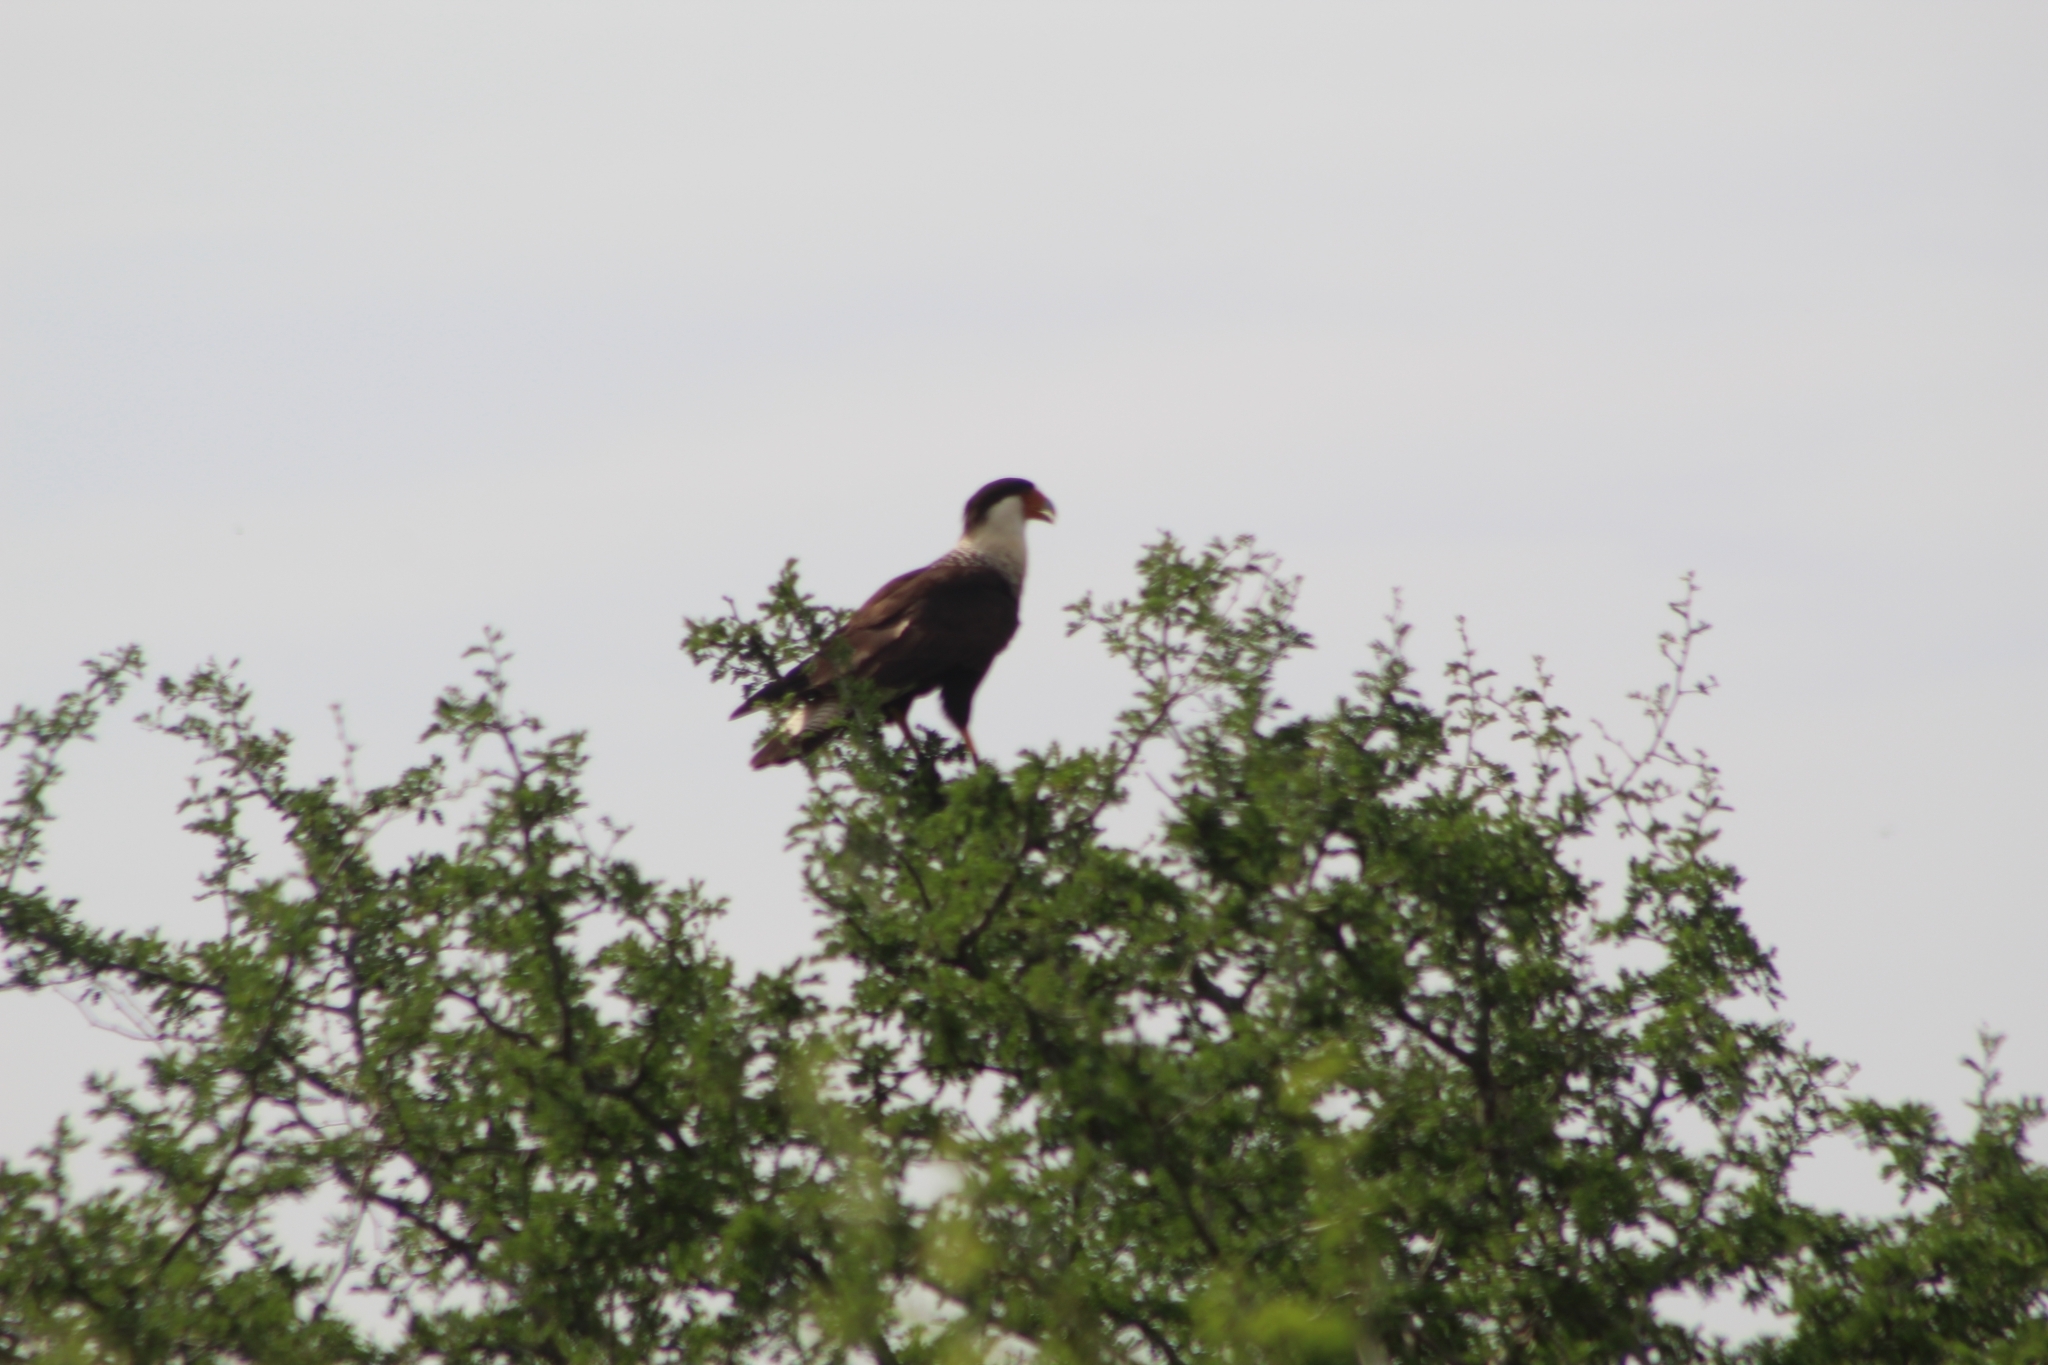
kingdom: Animalia
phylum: Chordata
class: Aves
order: Falconiformes
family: Falconidae
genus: Caracara
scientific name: Caracara plancus
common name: Southern caracara
